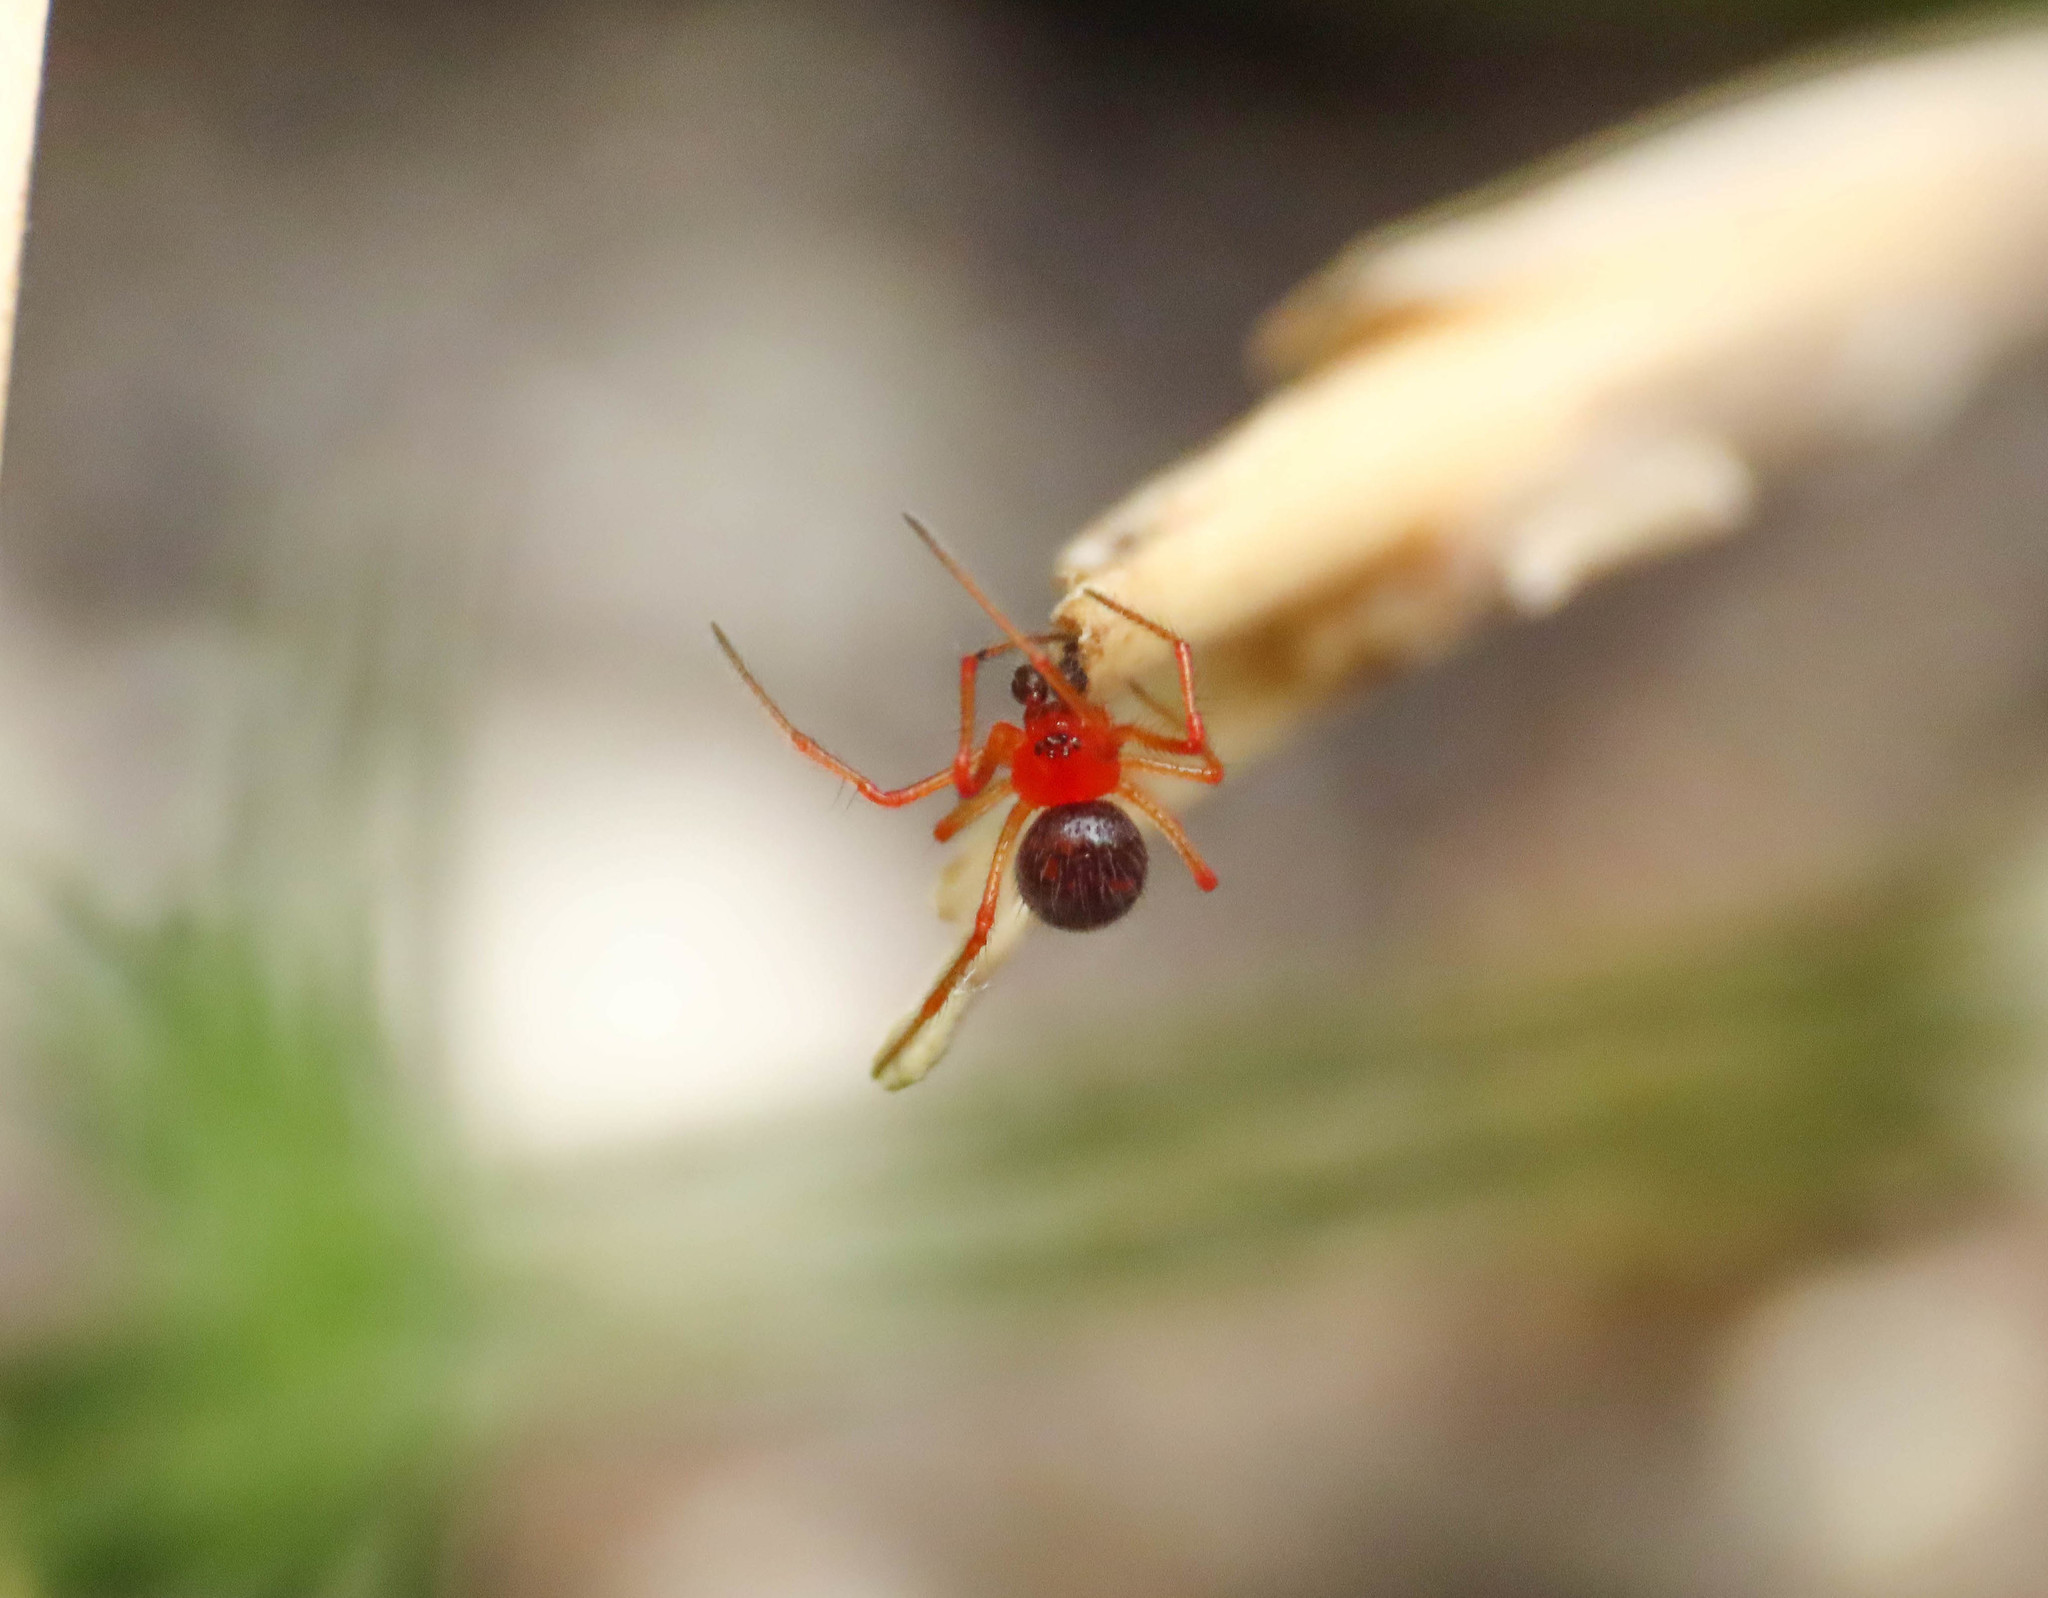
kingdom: Animalia
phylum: Arthropoda
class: Arachnida
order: Araneae
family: Theridiidae
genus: Ruborridion
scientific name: Ruborridion musivum
